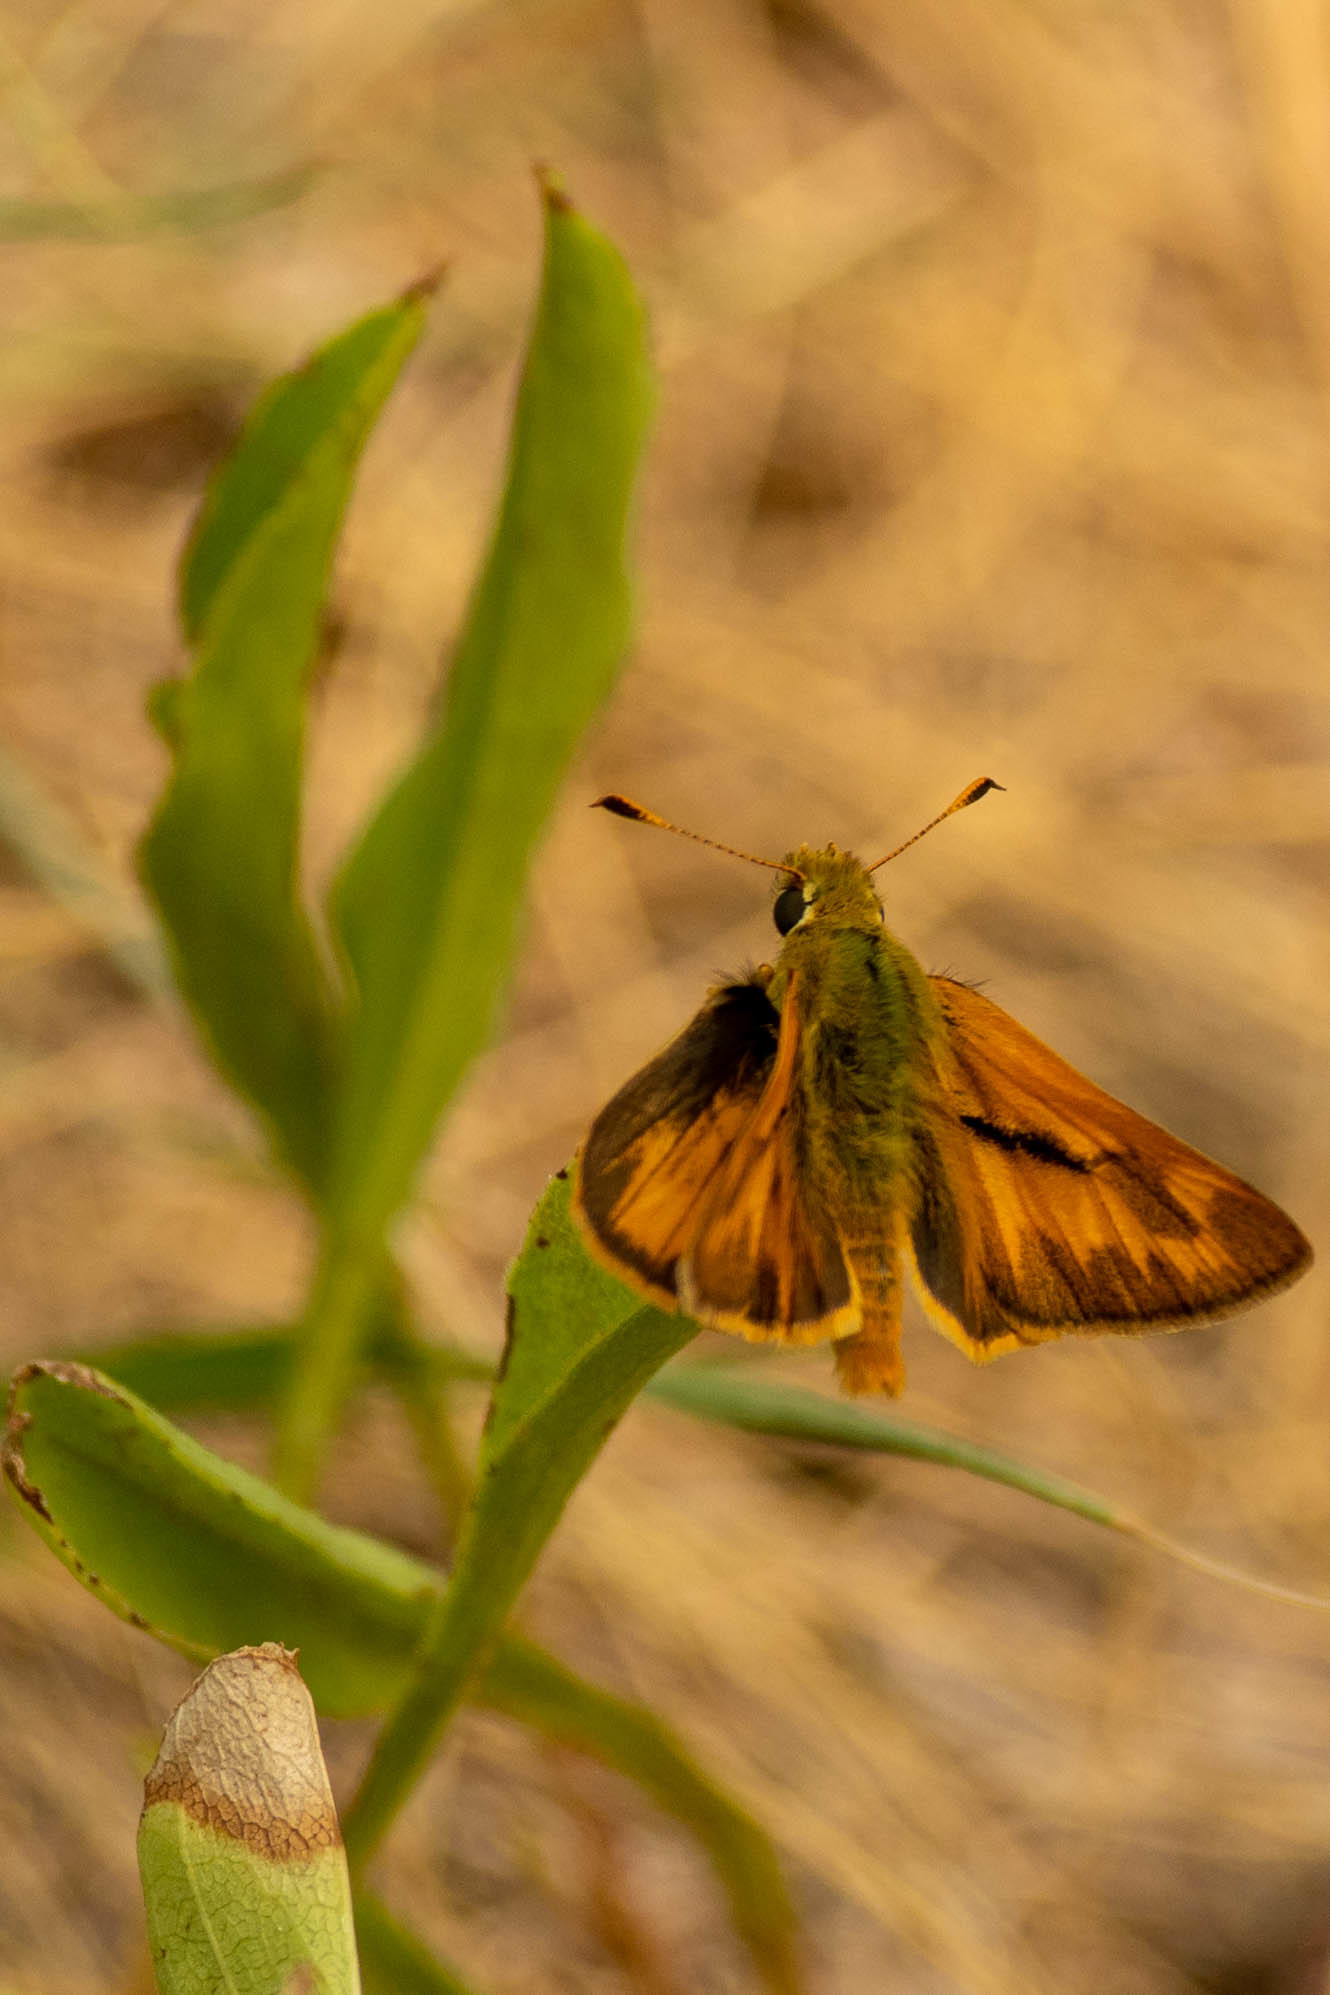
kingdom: Animalia
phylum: Arthropoda
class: Insecta
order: Lepidoptera
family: Hesperiidae
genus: Ochlodes
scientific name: Ochlodes sylvanoides
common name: Woodland skipper
